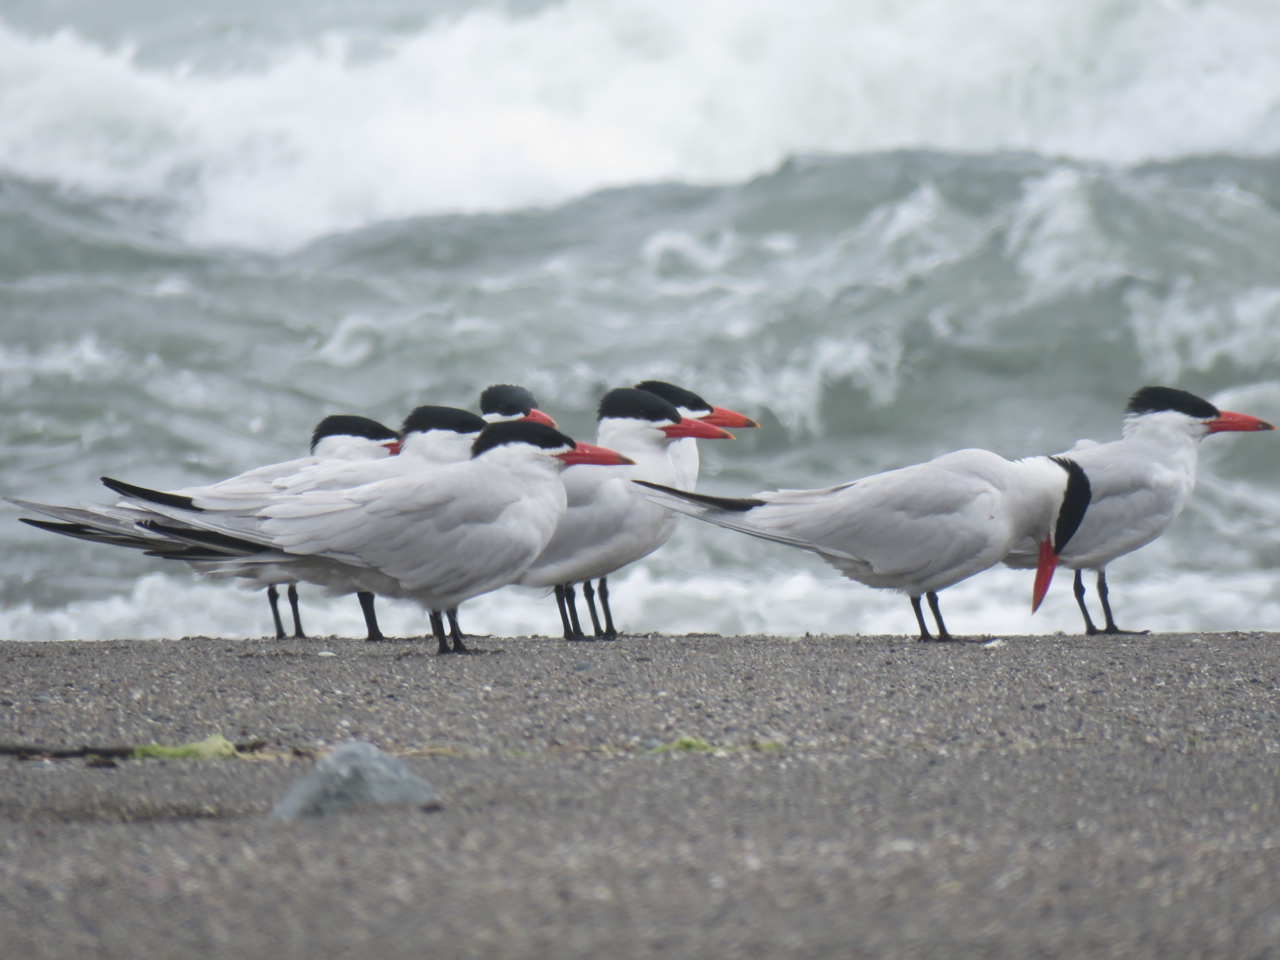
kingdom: Animalia
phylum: Chordata
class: Aves
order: Charadriiformes
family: Laridae
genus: Hydroprogne
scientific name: Hydroprogne caspia
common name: Caspian tern
